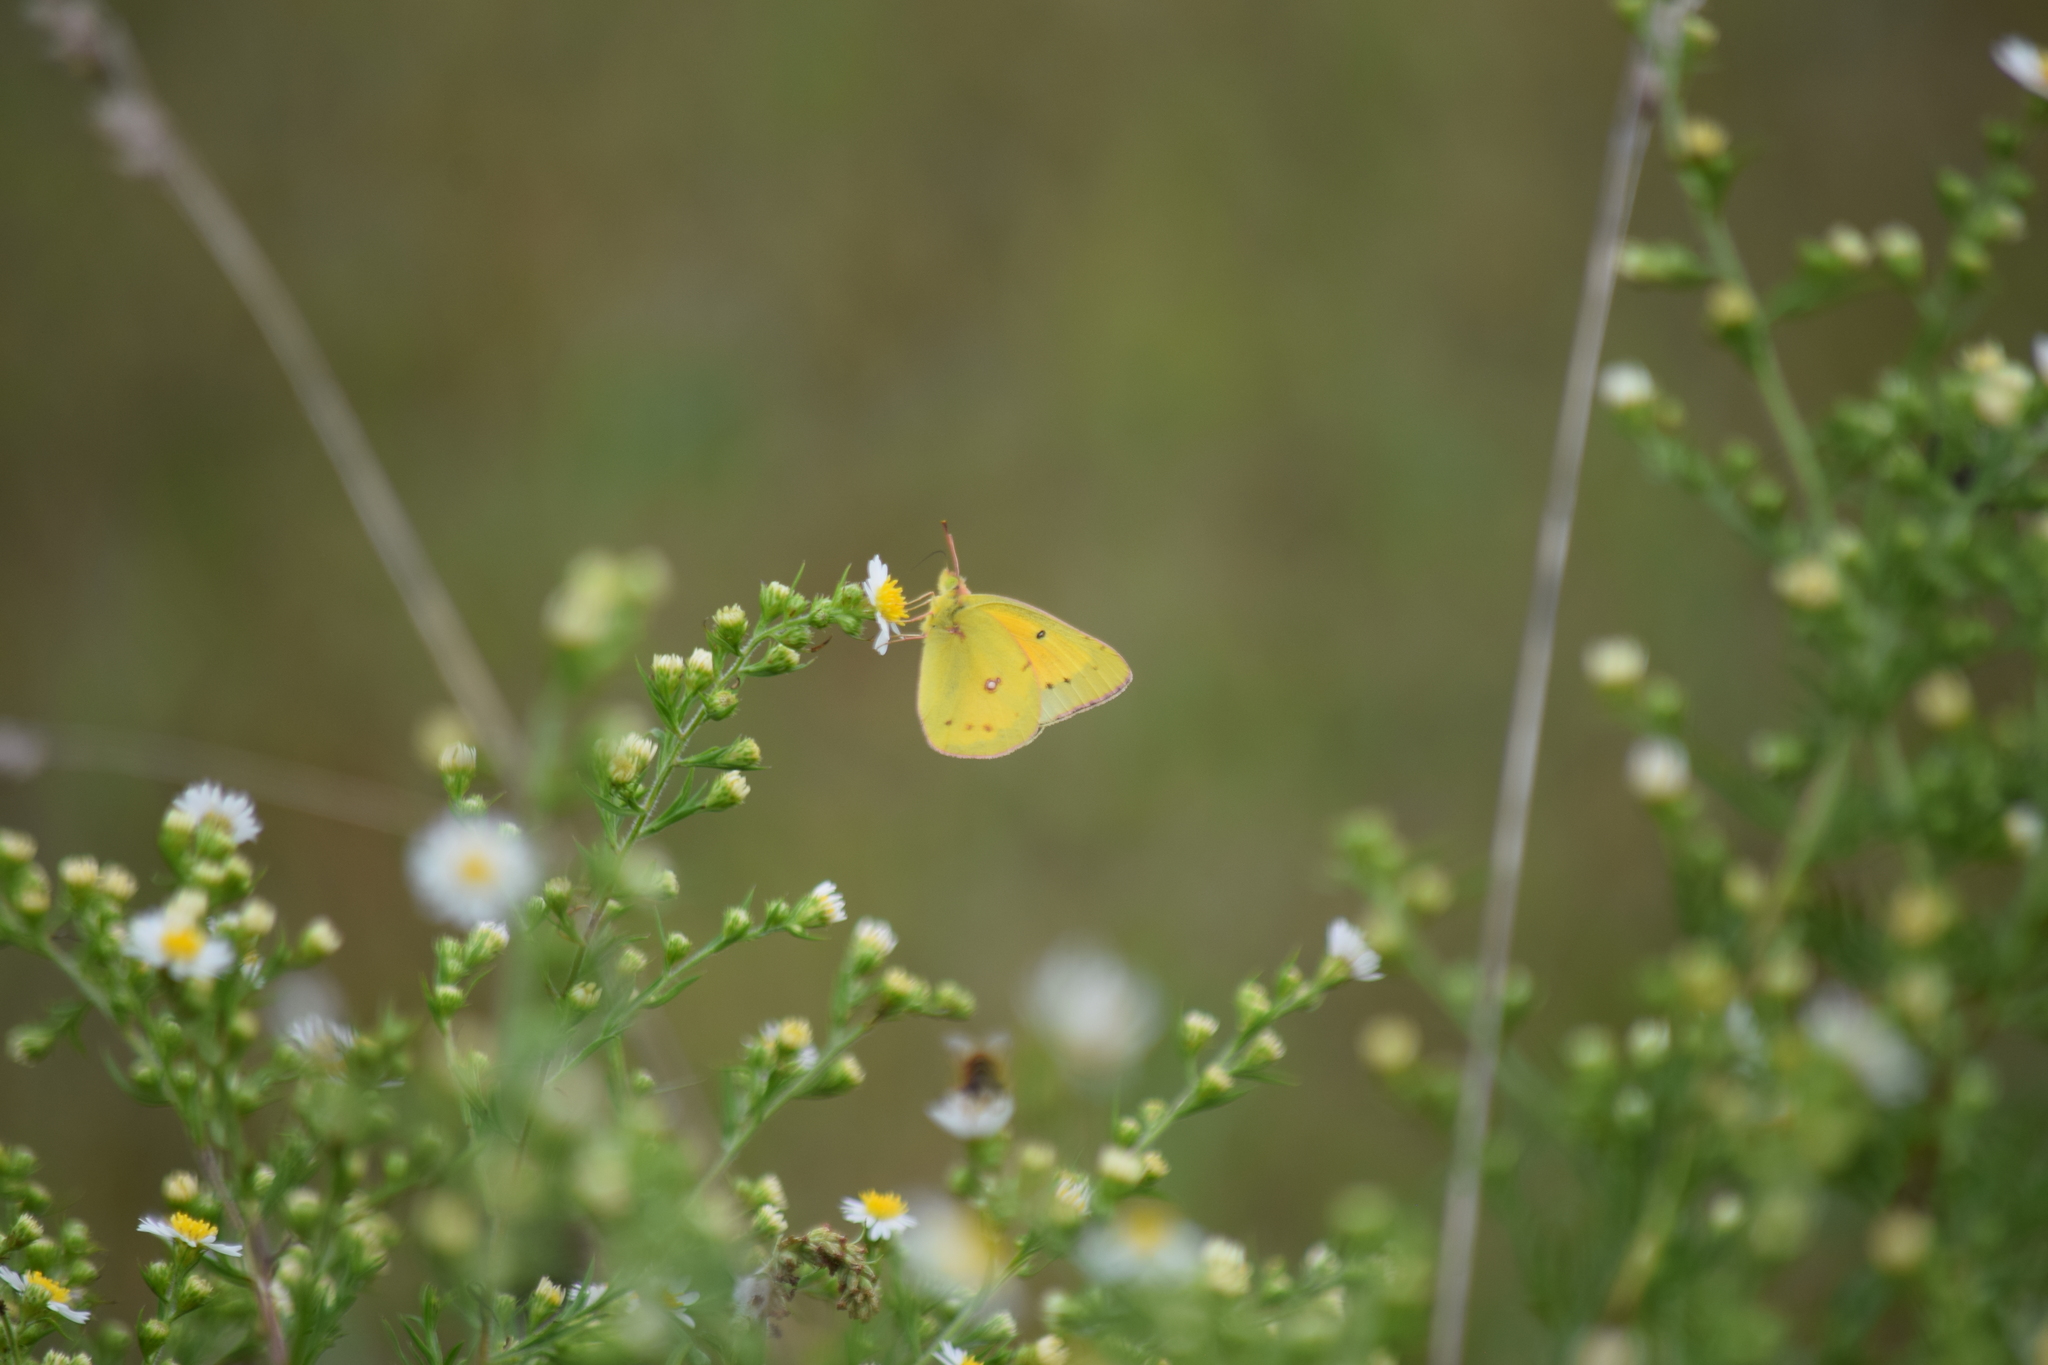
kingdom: Animalia
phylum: Arthropoda
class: Insecta
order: Lepidoptera
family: Pieridae
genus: Colias
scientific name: Colias
